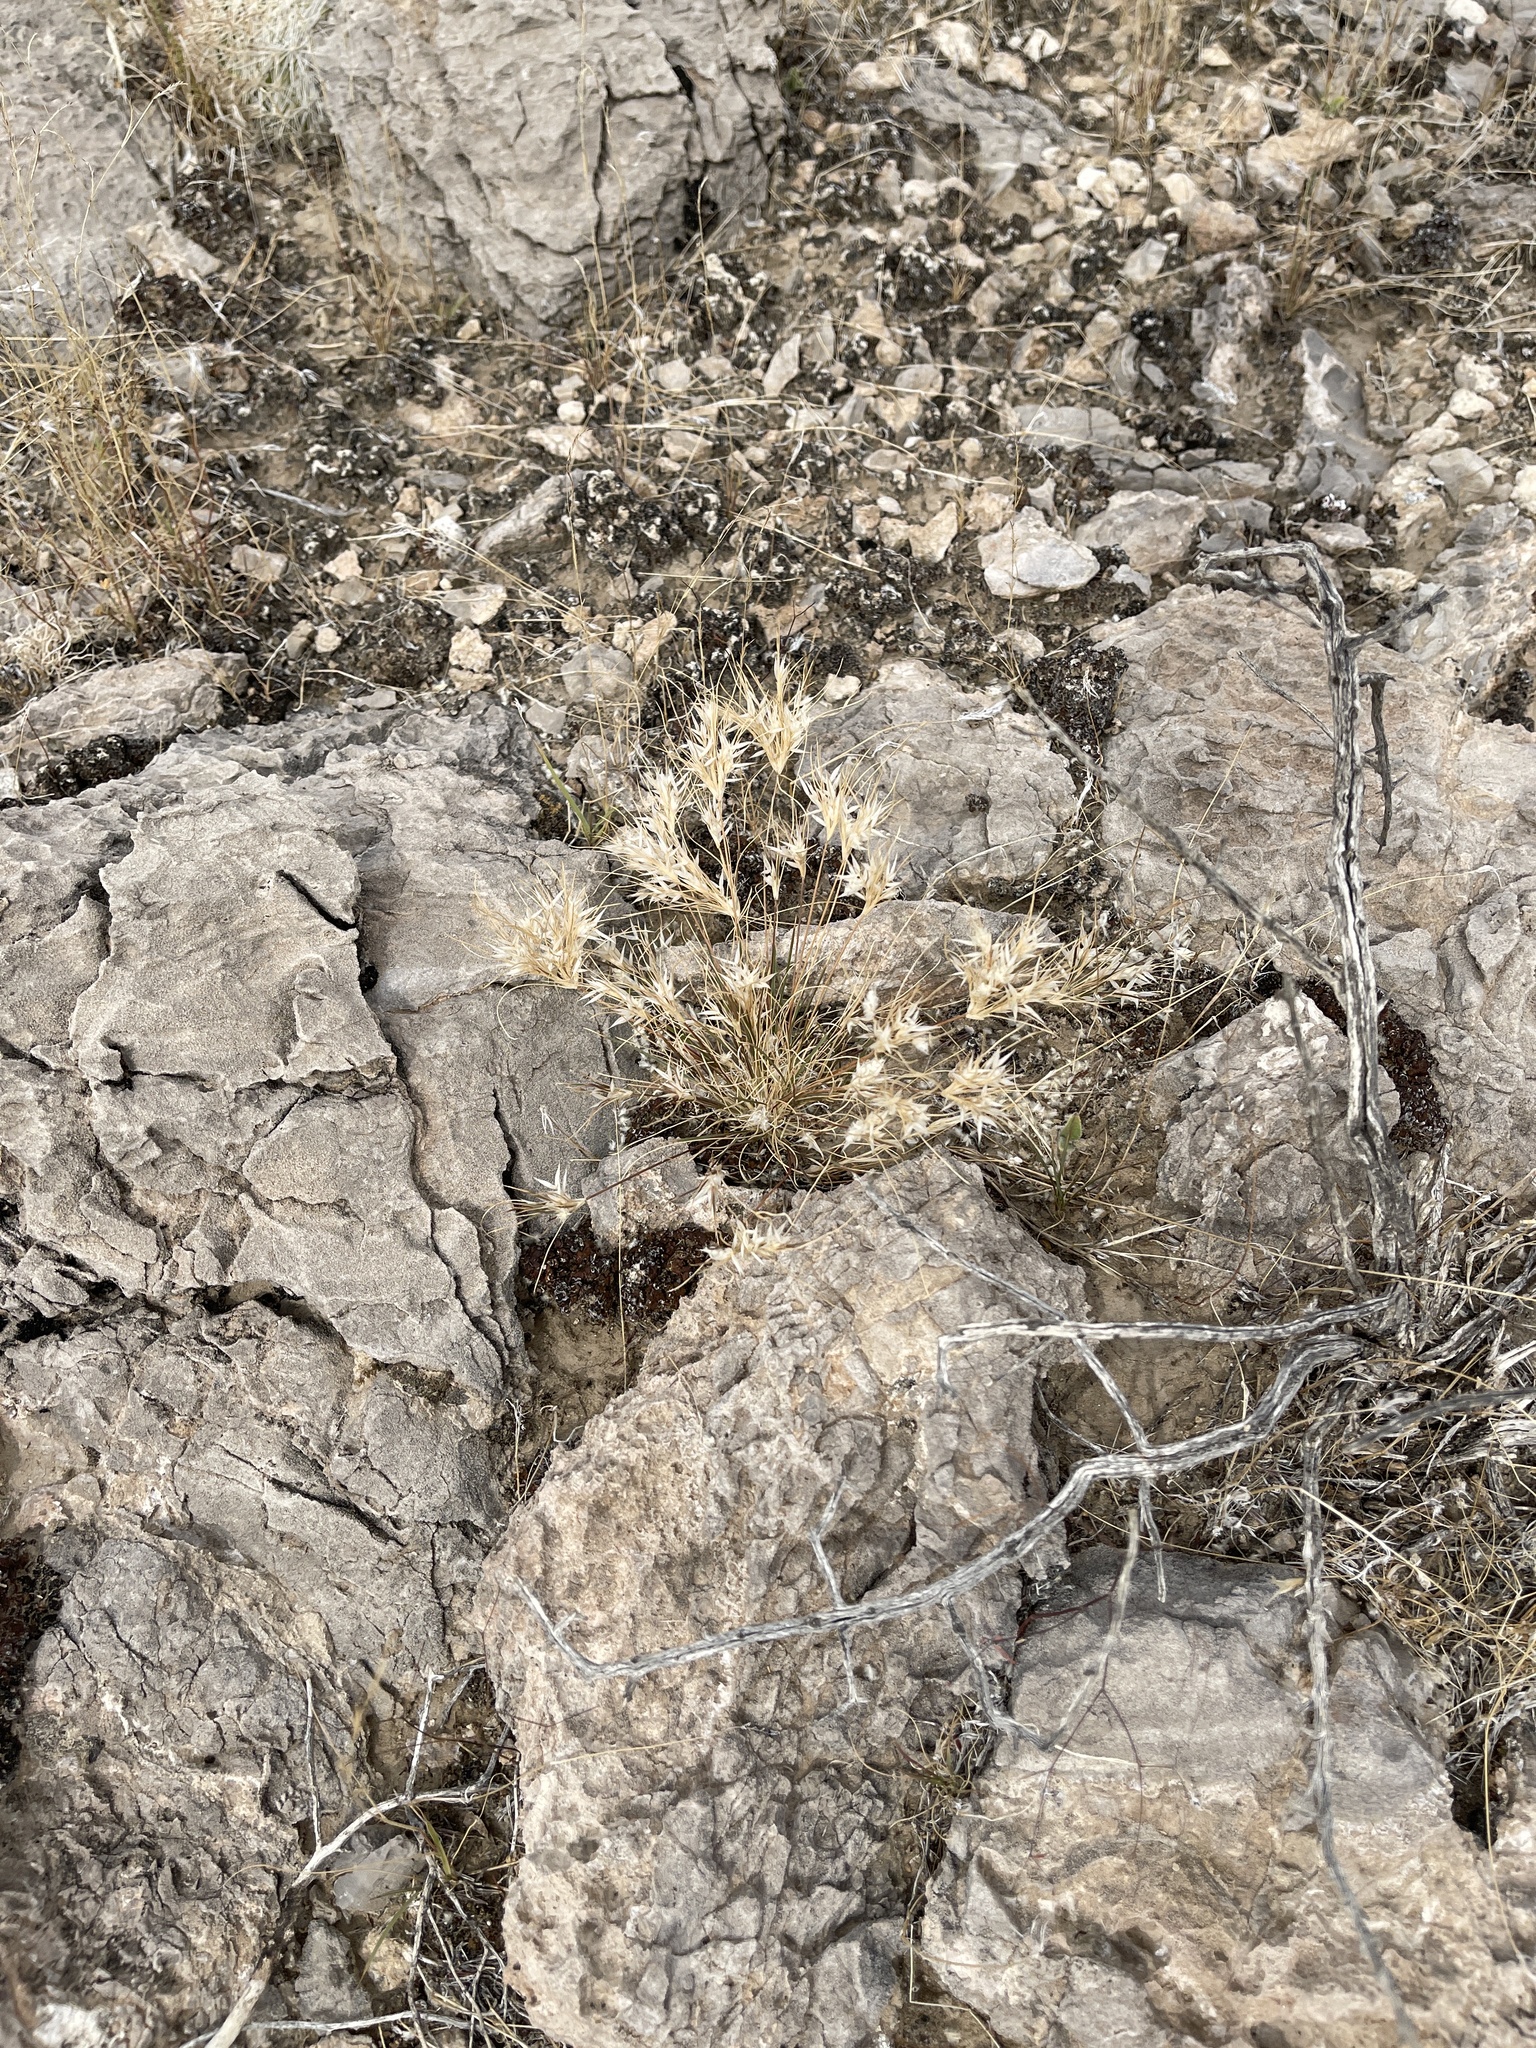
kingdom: Plantae
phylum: Tracheophyta
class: Liliopsida
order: Poales
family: Poaceae
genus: Dasyochloa
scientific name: Dasyochloa pulchella
